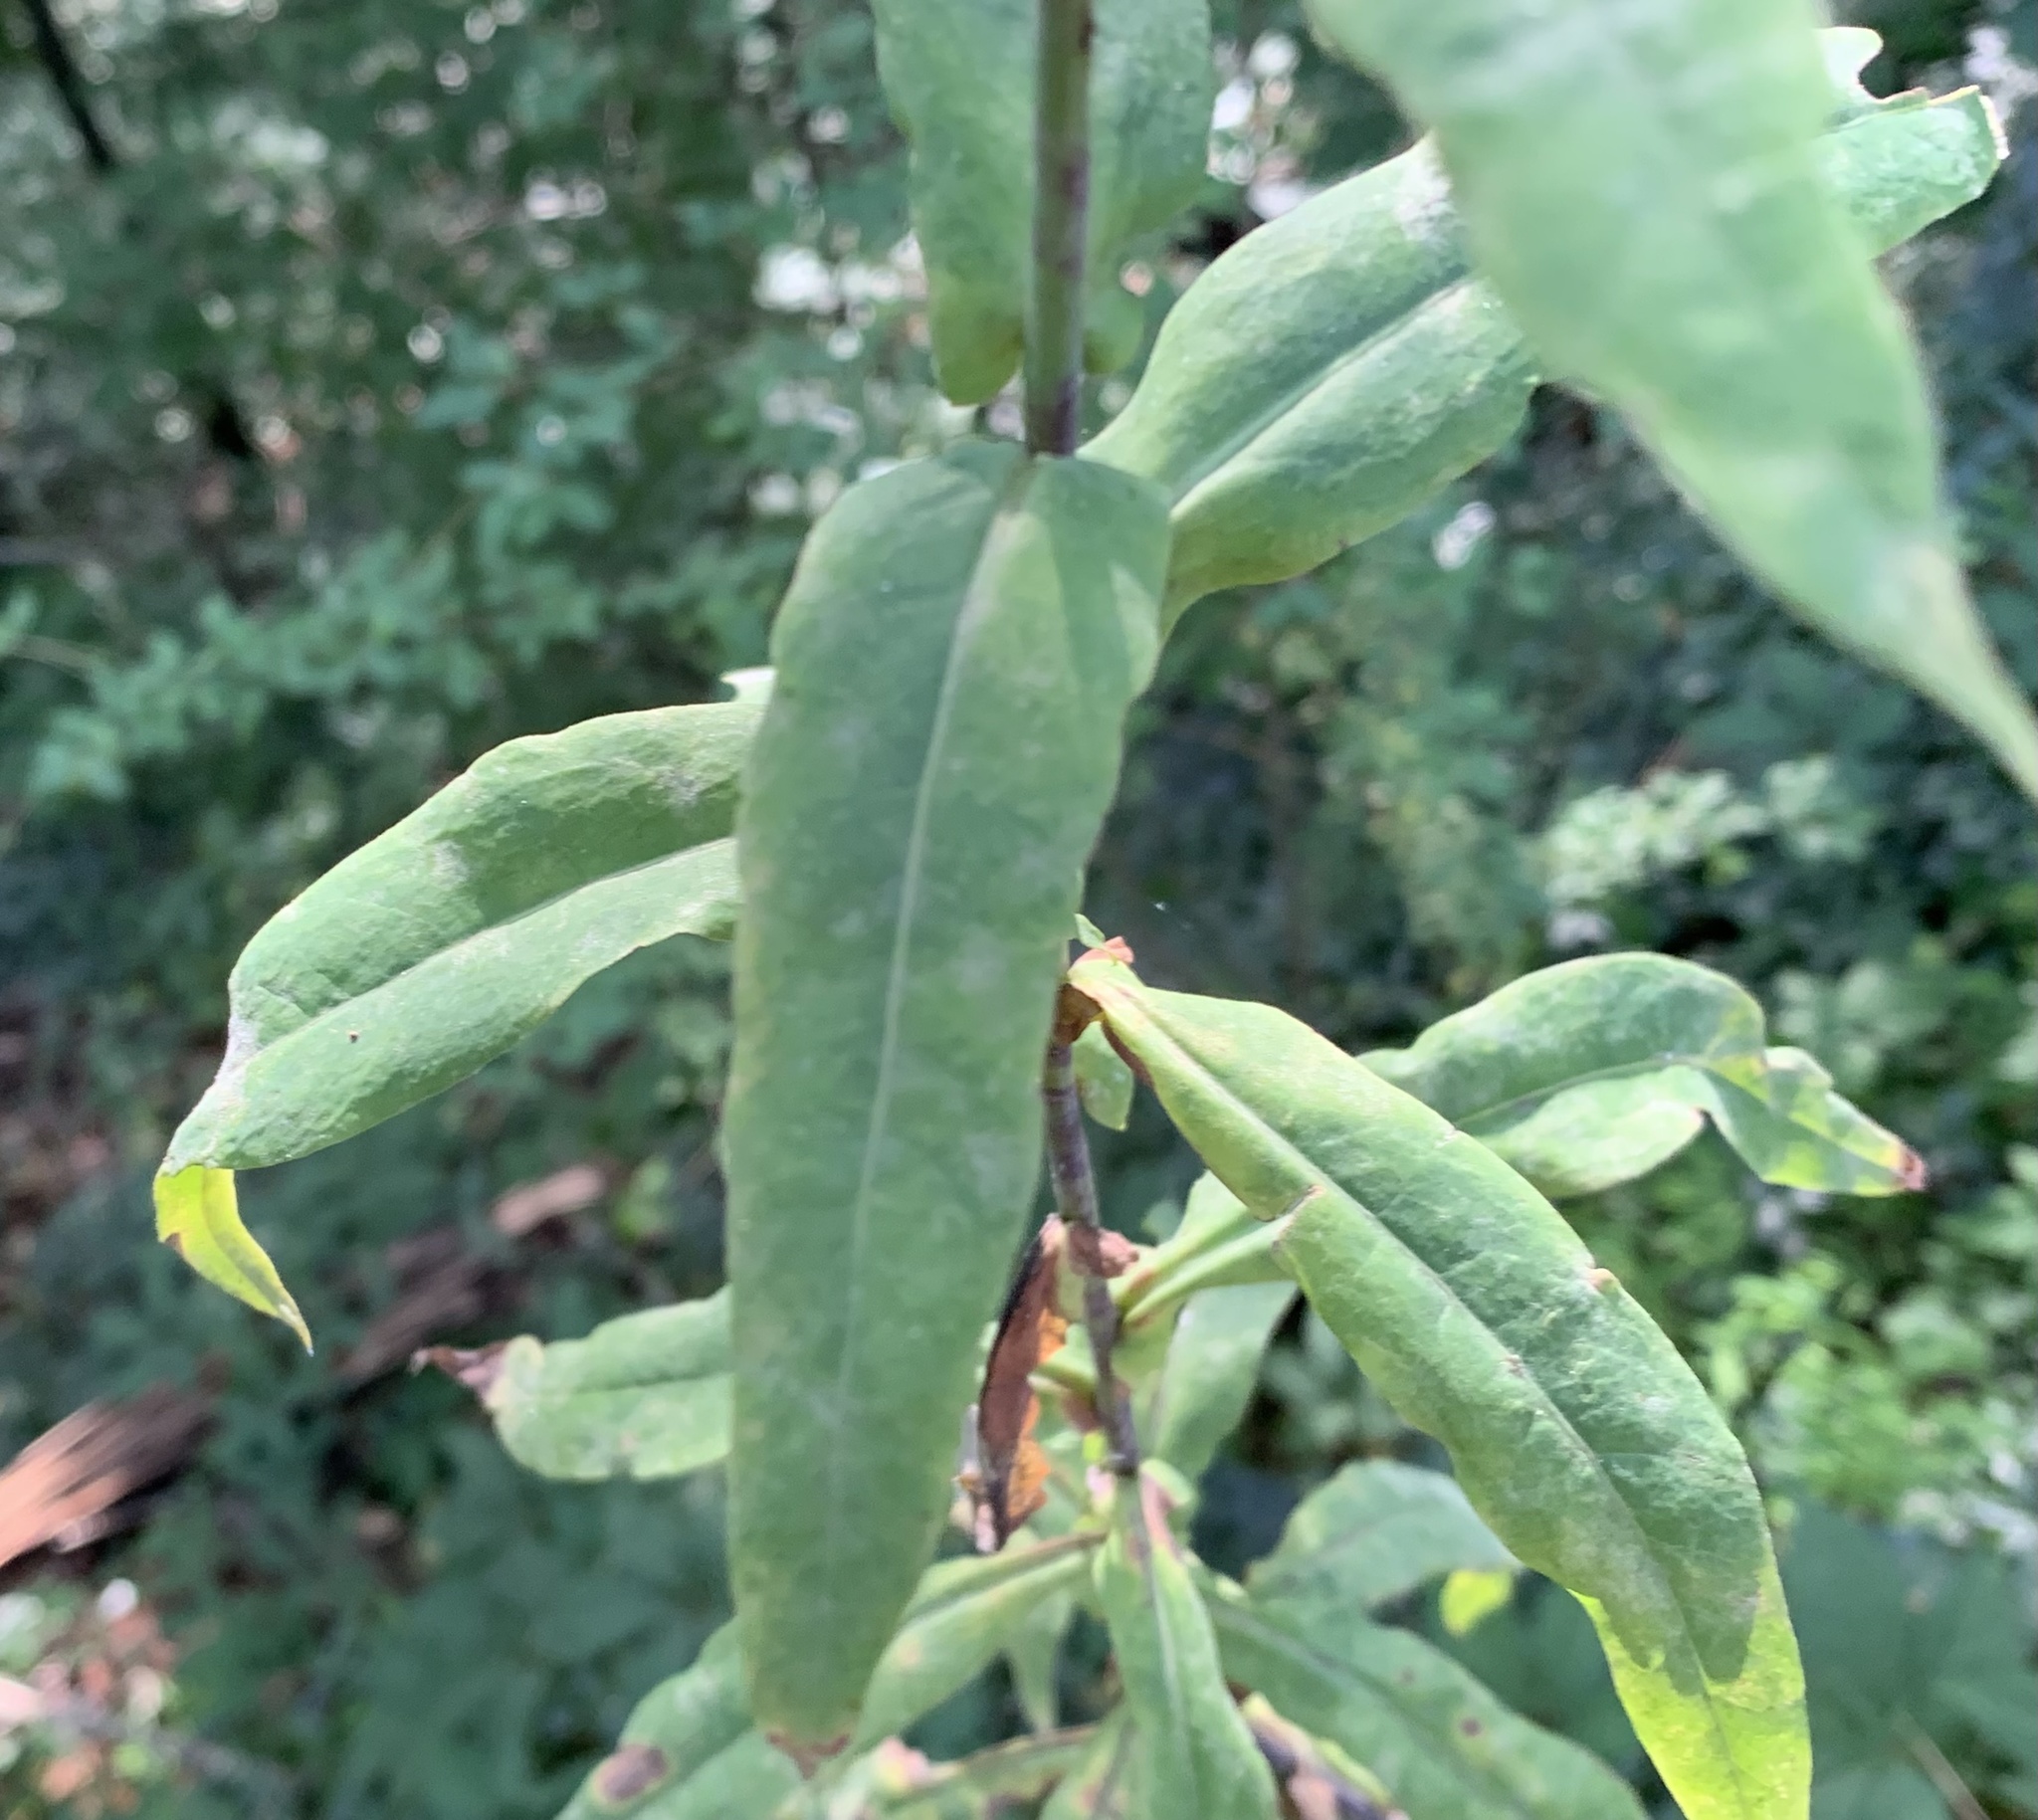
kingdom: Plantae
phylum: Tracheophyta
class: Magnoliopsida
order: Asterales
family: Asteraceae
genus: Lactuca
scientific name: Lactuca canadensis
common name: Canada lettuce
